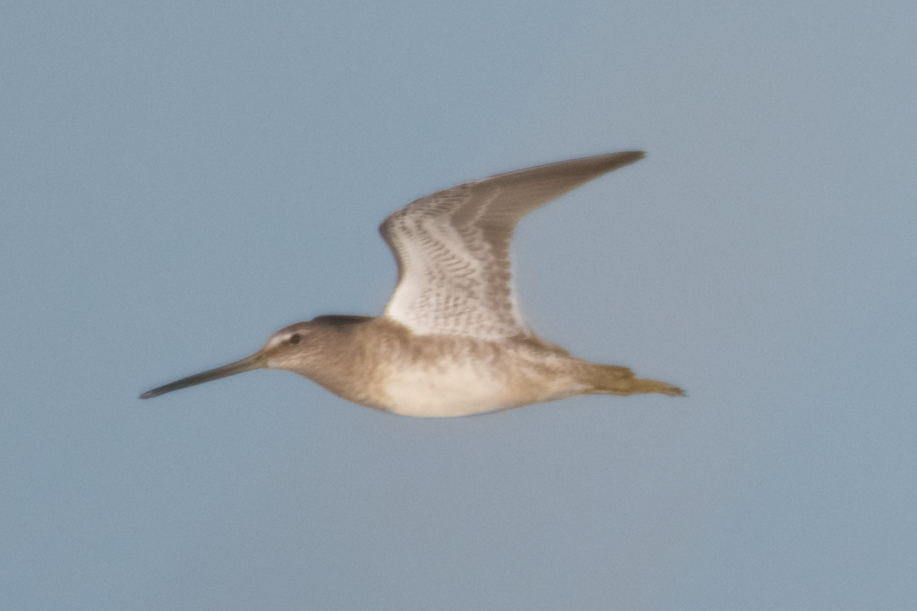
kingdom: Animalia
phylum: Chordata
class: Aves
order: Charadriiformes
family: Scolopacidae
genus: Limnodromus
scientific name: Limnodromus scolopaceus
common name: Long-billed dowitcher
